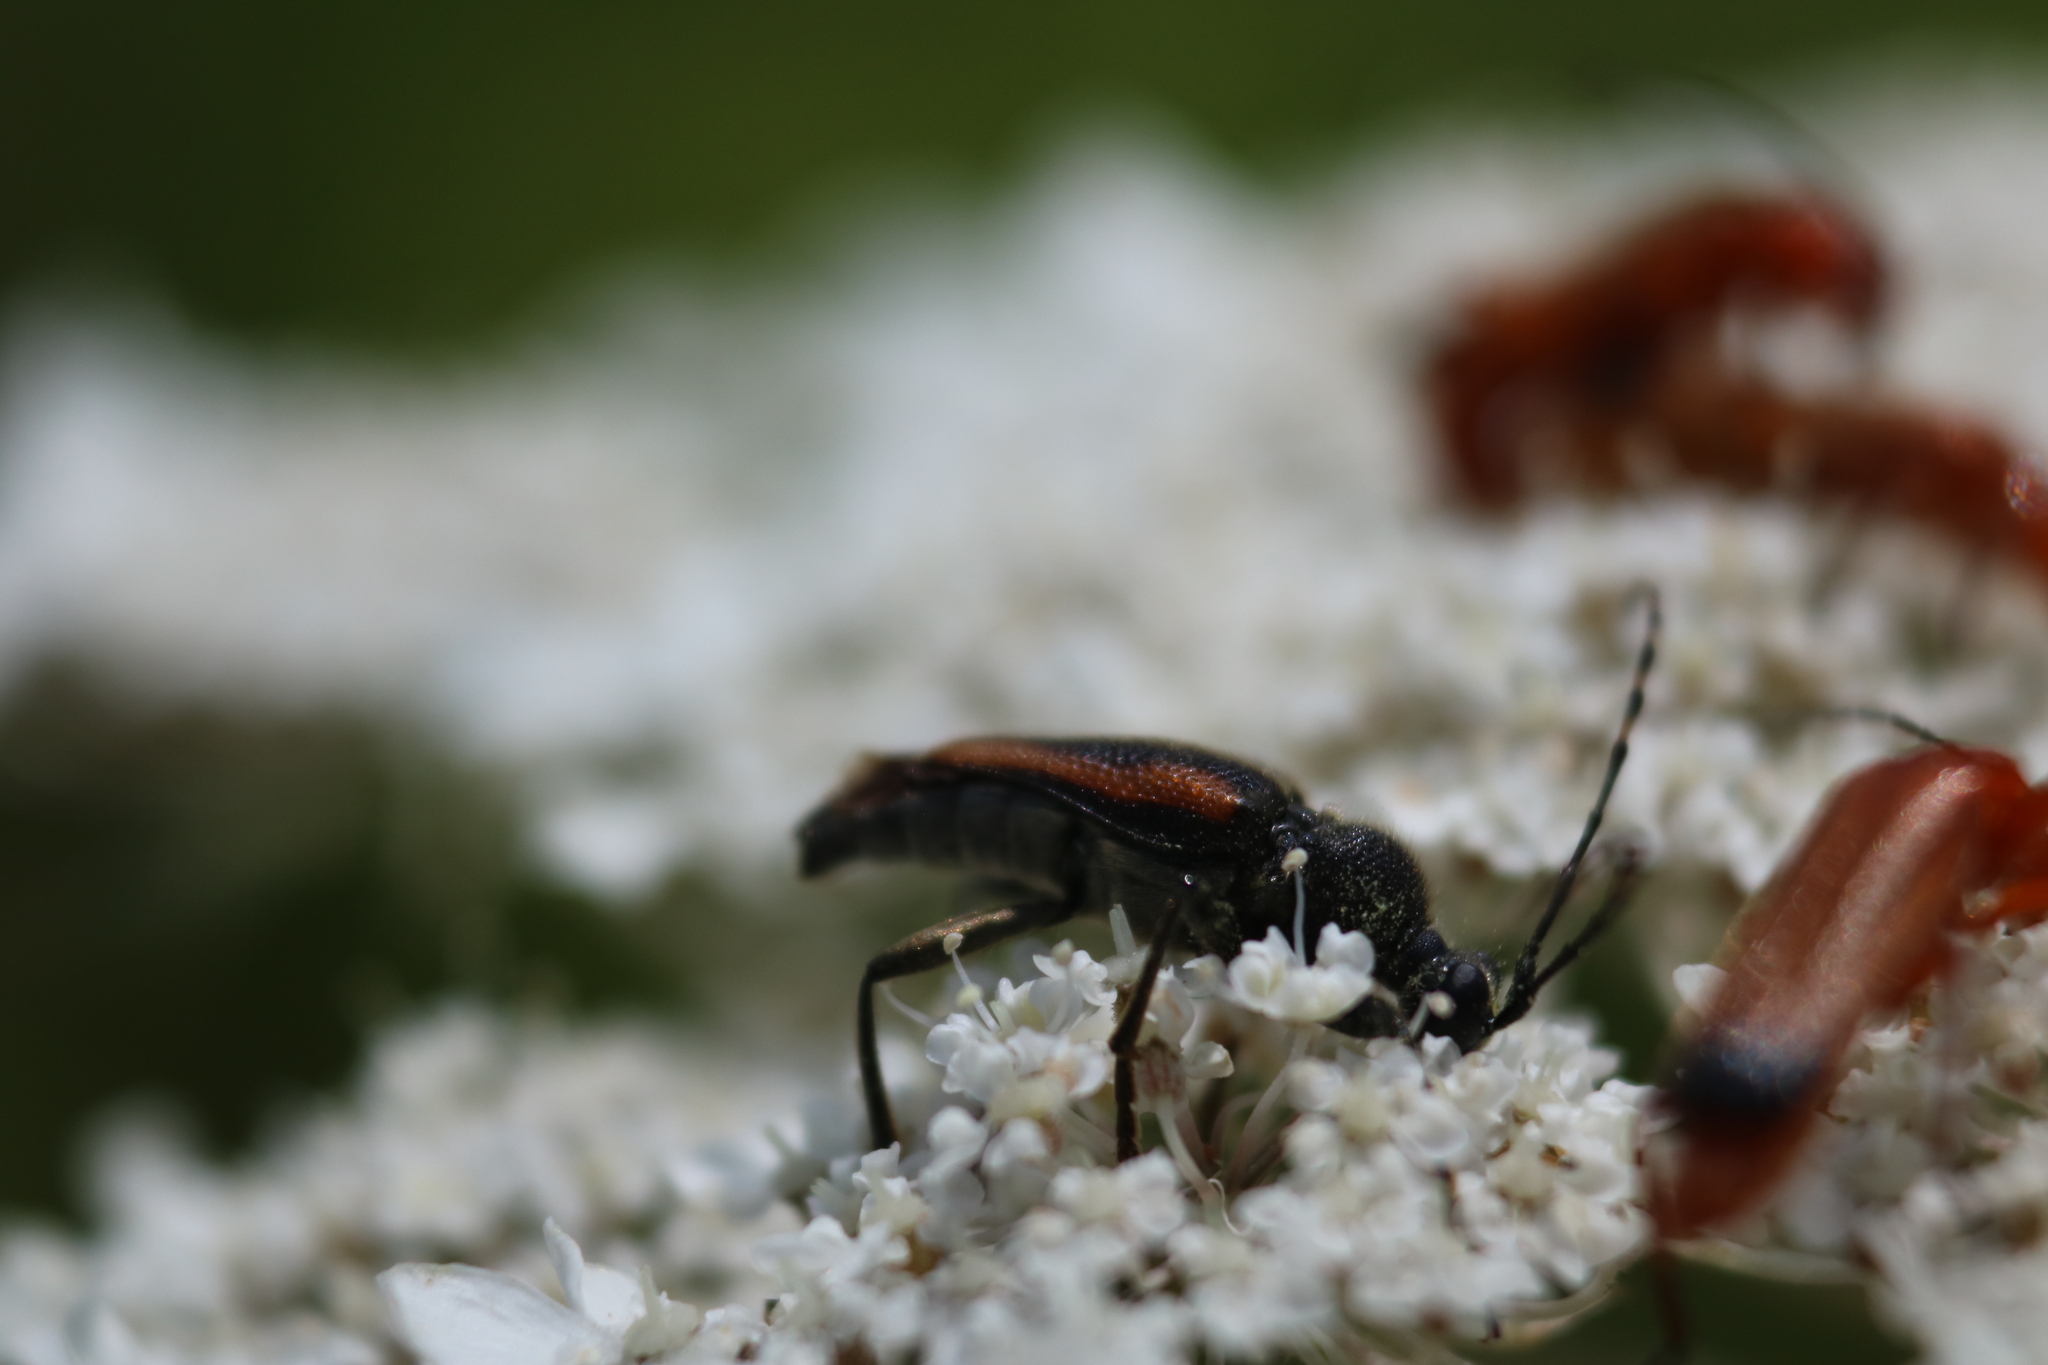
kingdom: Animalia
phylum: Arthropoda
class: Insecta
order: Coleoptera
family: Cerambycidae
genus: Brachyleptura
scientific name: Brachyleptura vagans
